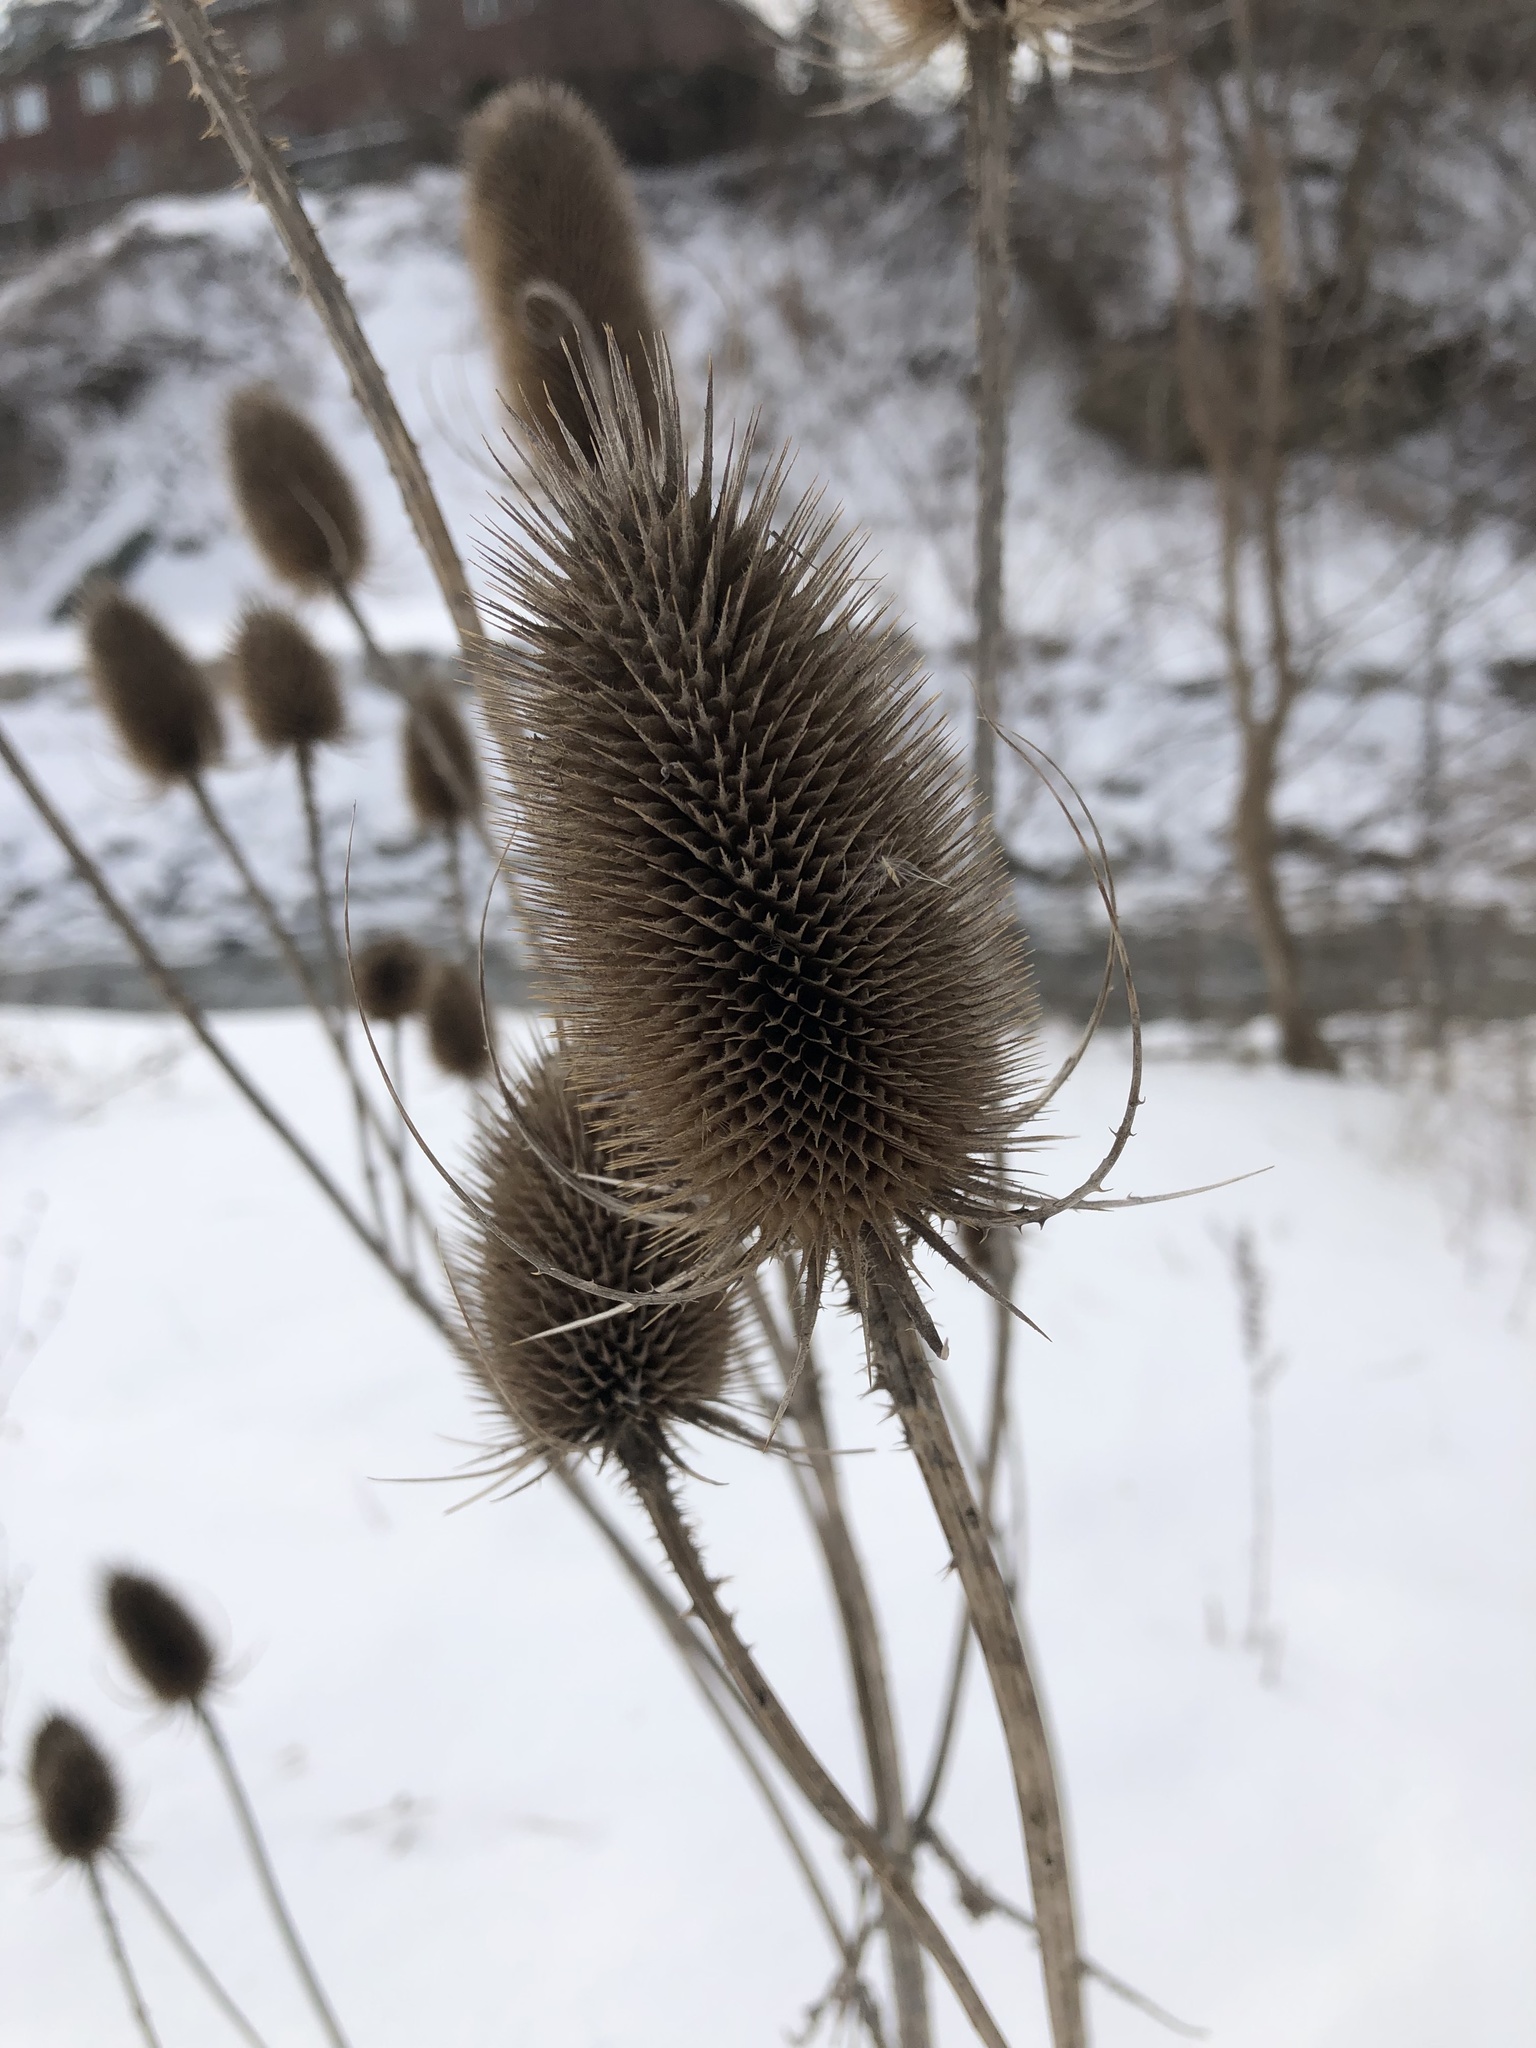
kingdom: Plantae
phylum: Tracheophyta
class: Magnoliopsida
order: Dipsacales
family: Caprifoliaceae
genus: Dipsacus
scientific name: Dipsacus fullonum
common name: Teasel
